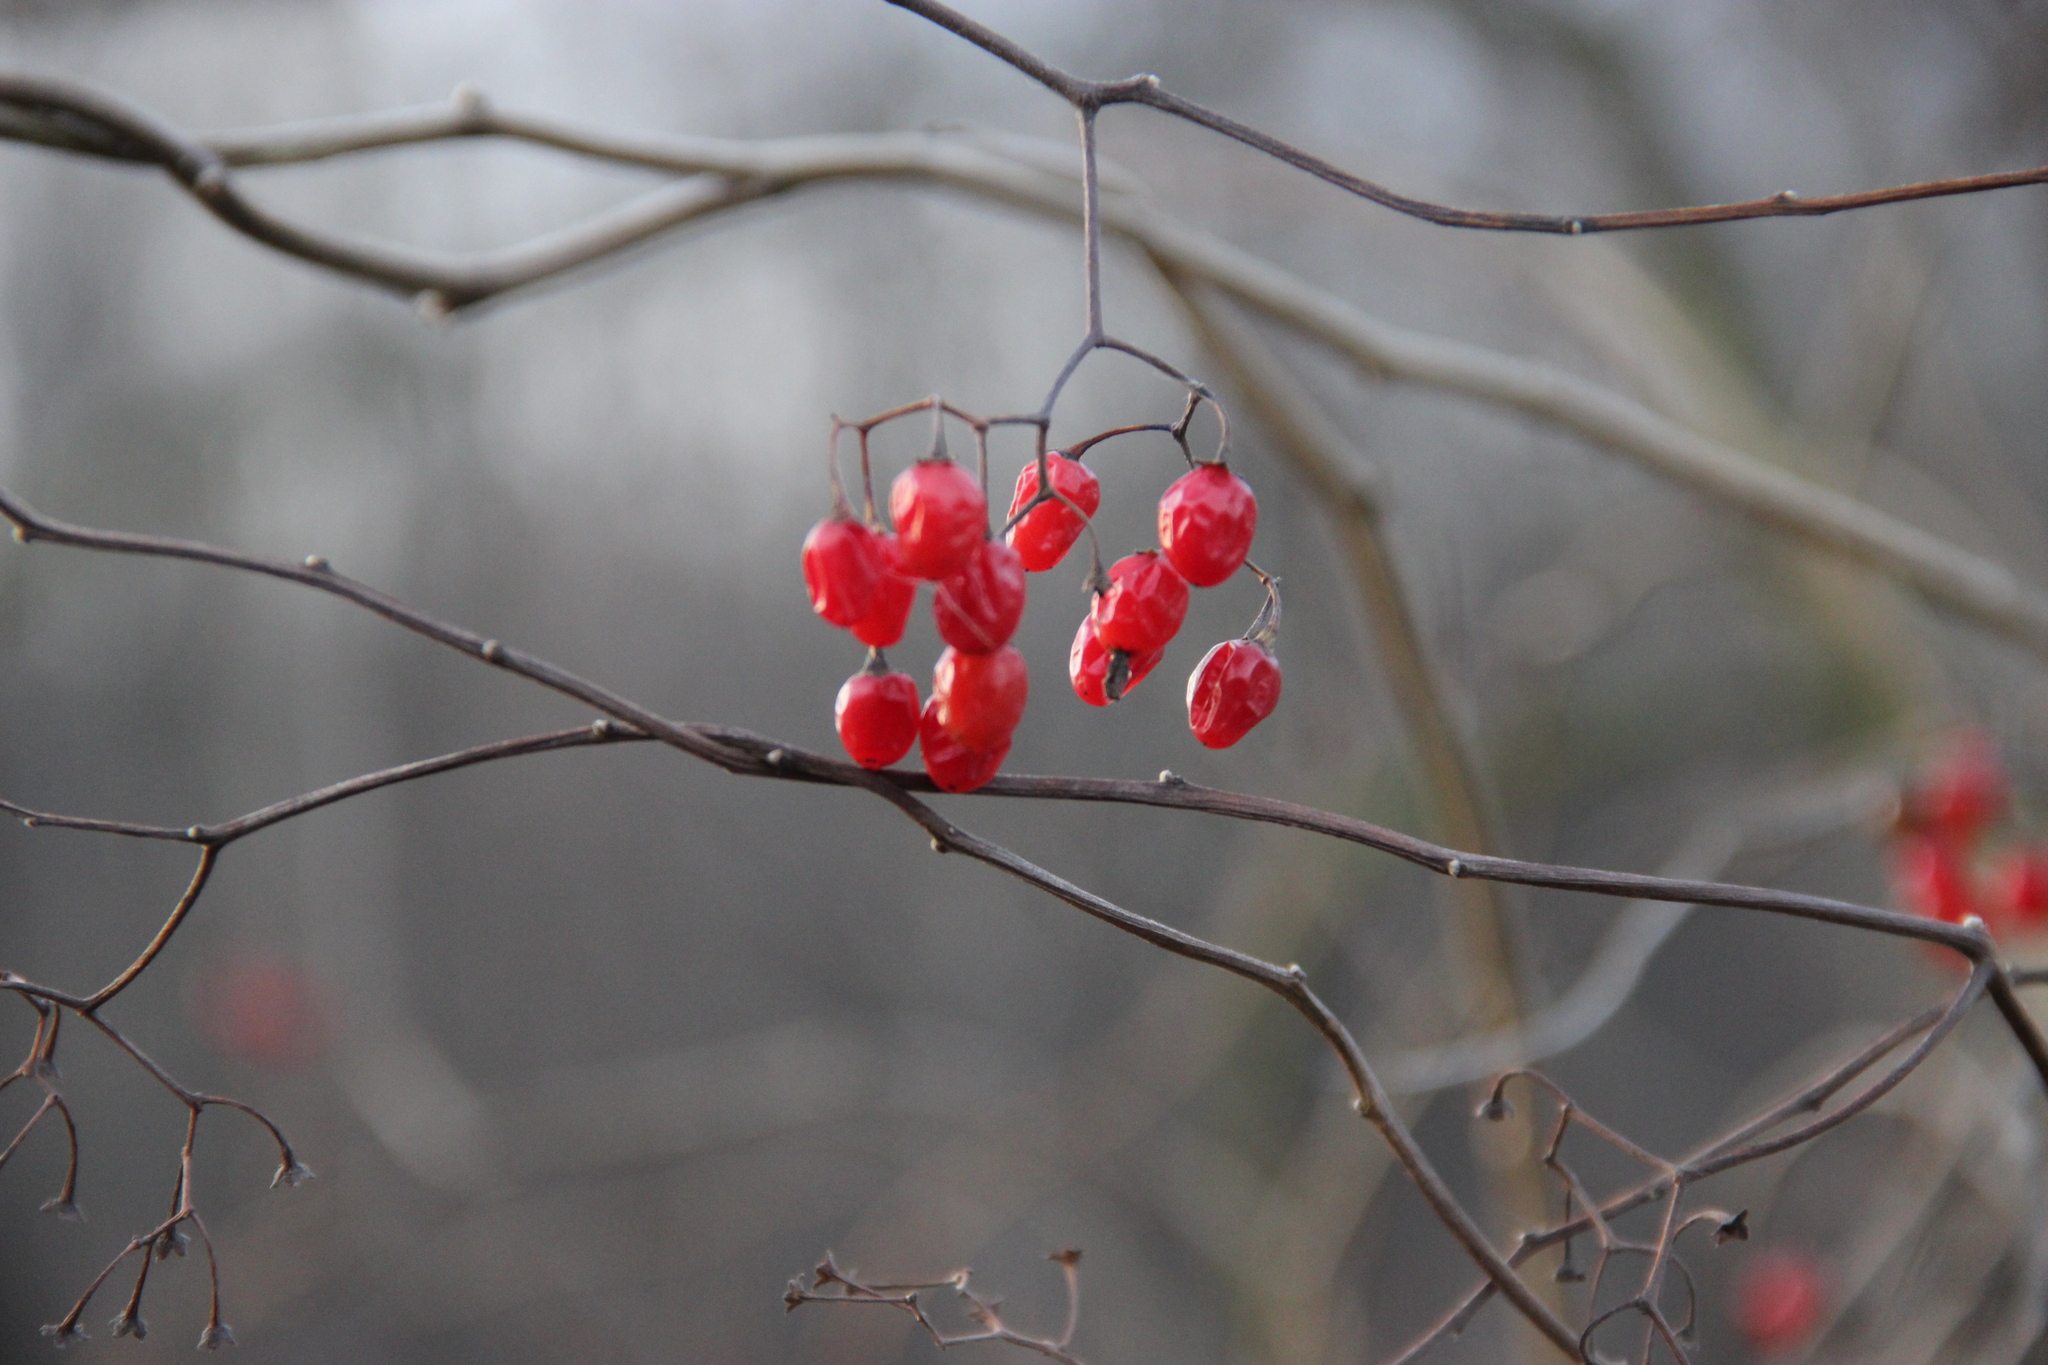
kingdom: Plantae
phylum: Tracheophyta
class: Magnoliopsida
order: Solanales
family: Solanaceae
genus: Solanum
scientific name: Solanum dulcamara
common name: Climbing nightshade
